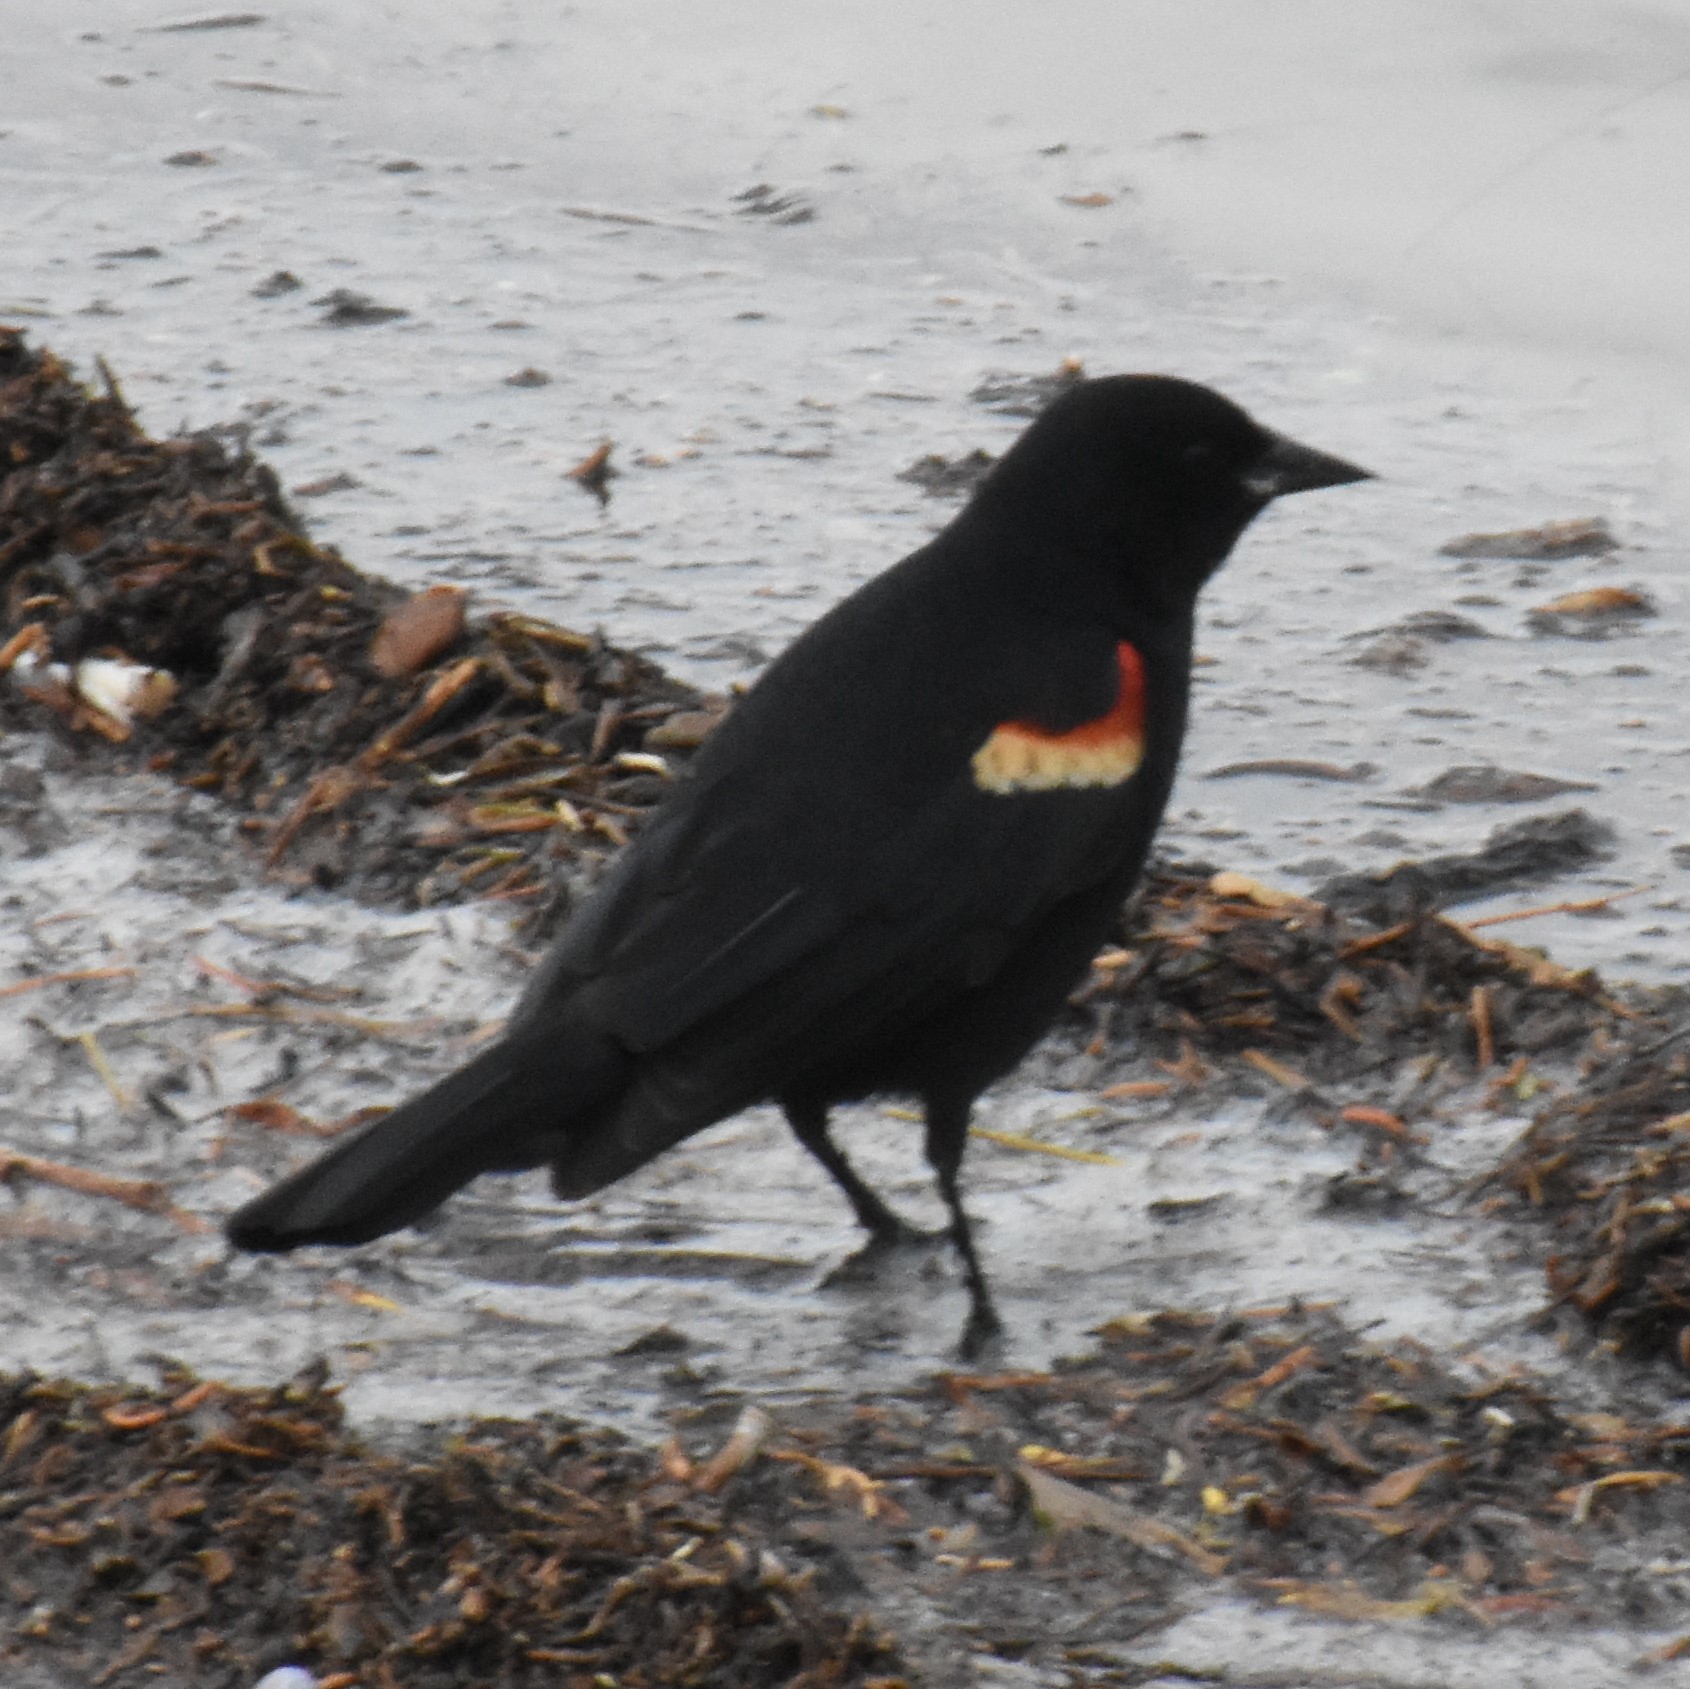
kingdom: Animalia
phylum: Chordata
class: Aves
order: Passeriformes
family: Icteridae
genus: Agelaius
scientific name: Agelaius phoeniceus
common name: Red-winged blackbird
